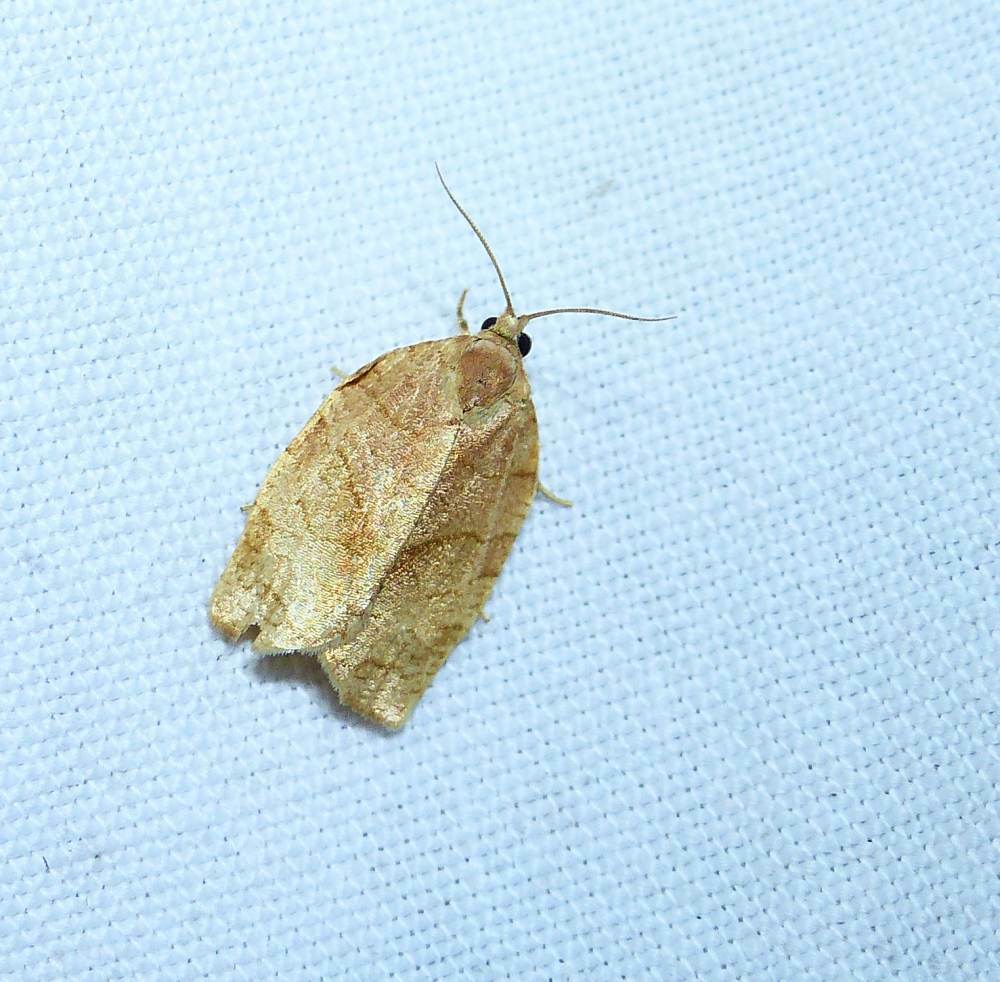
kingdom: Animalia
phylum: Arthropoda
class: Insecta
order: Lepidoptera
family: Tortricidae
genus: Choristoneura
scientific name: Choristoneura rosaceana
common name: Oblique-banded leafroller moth
